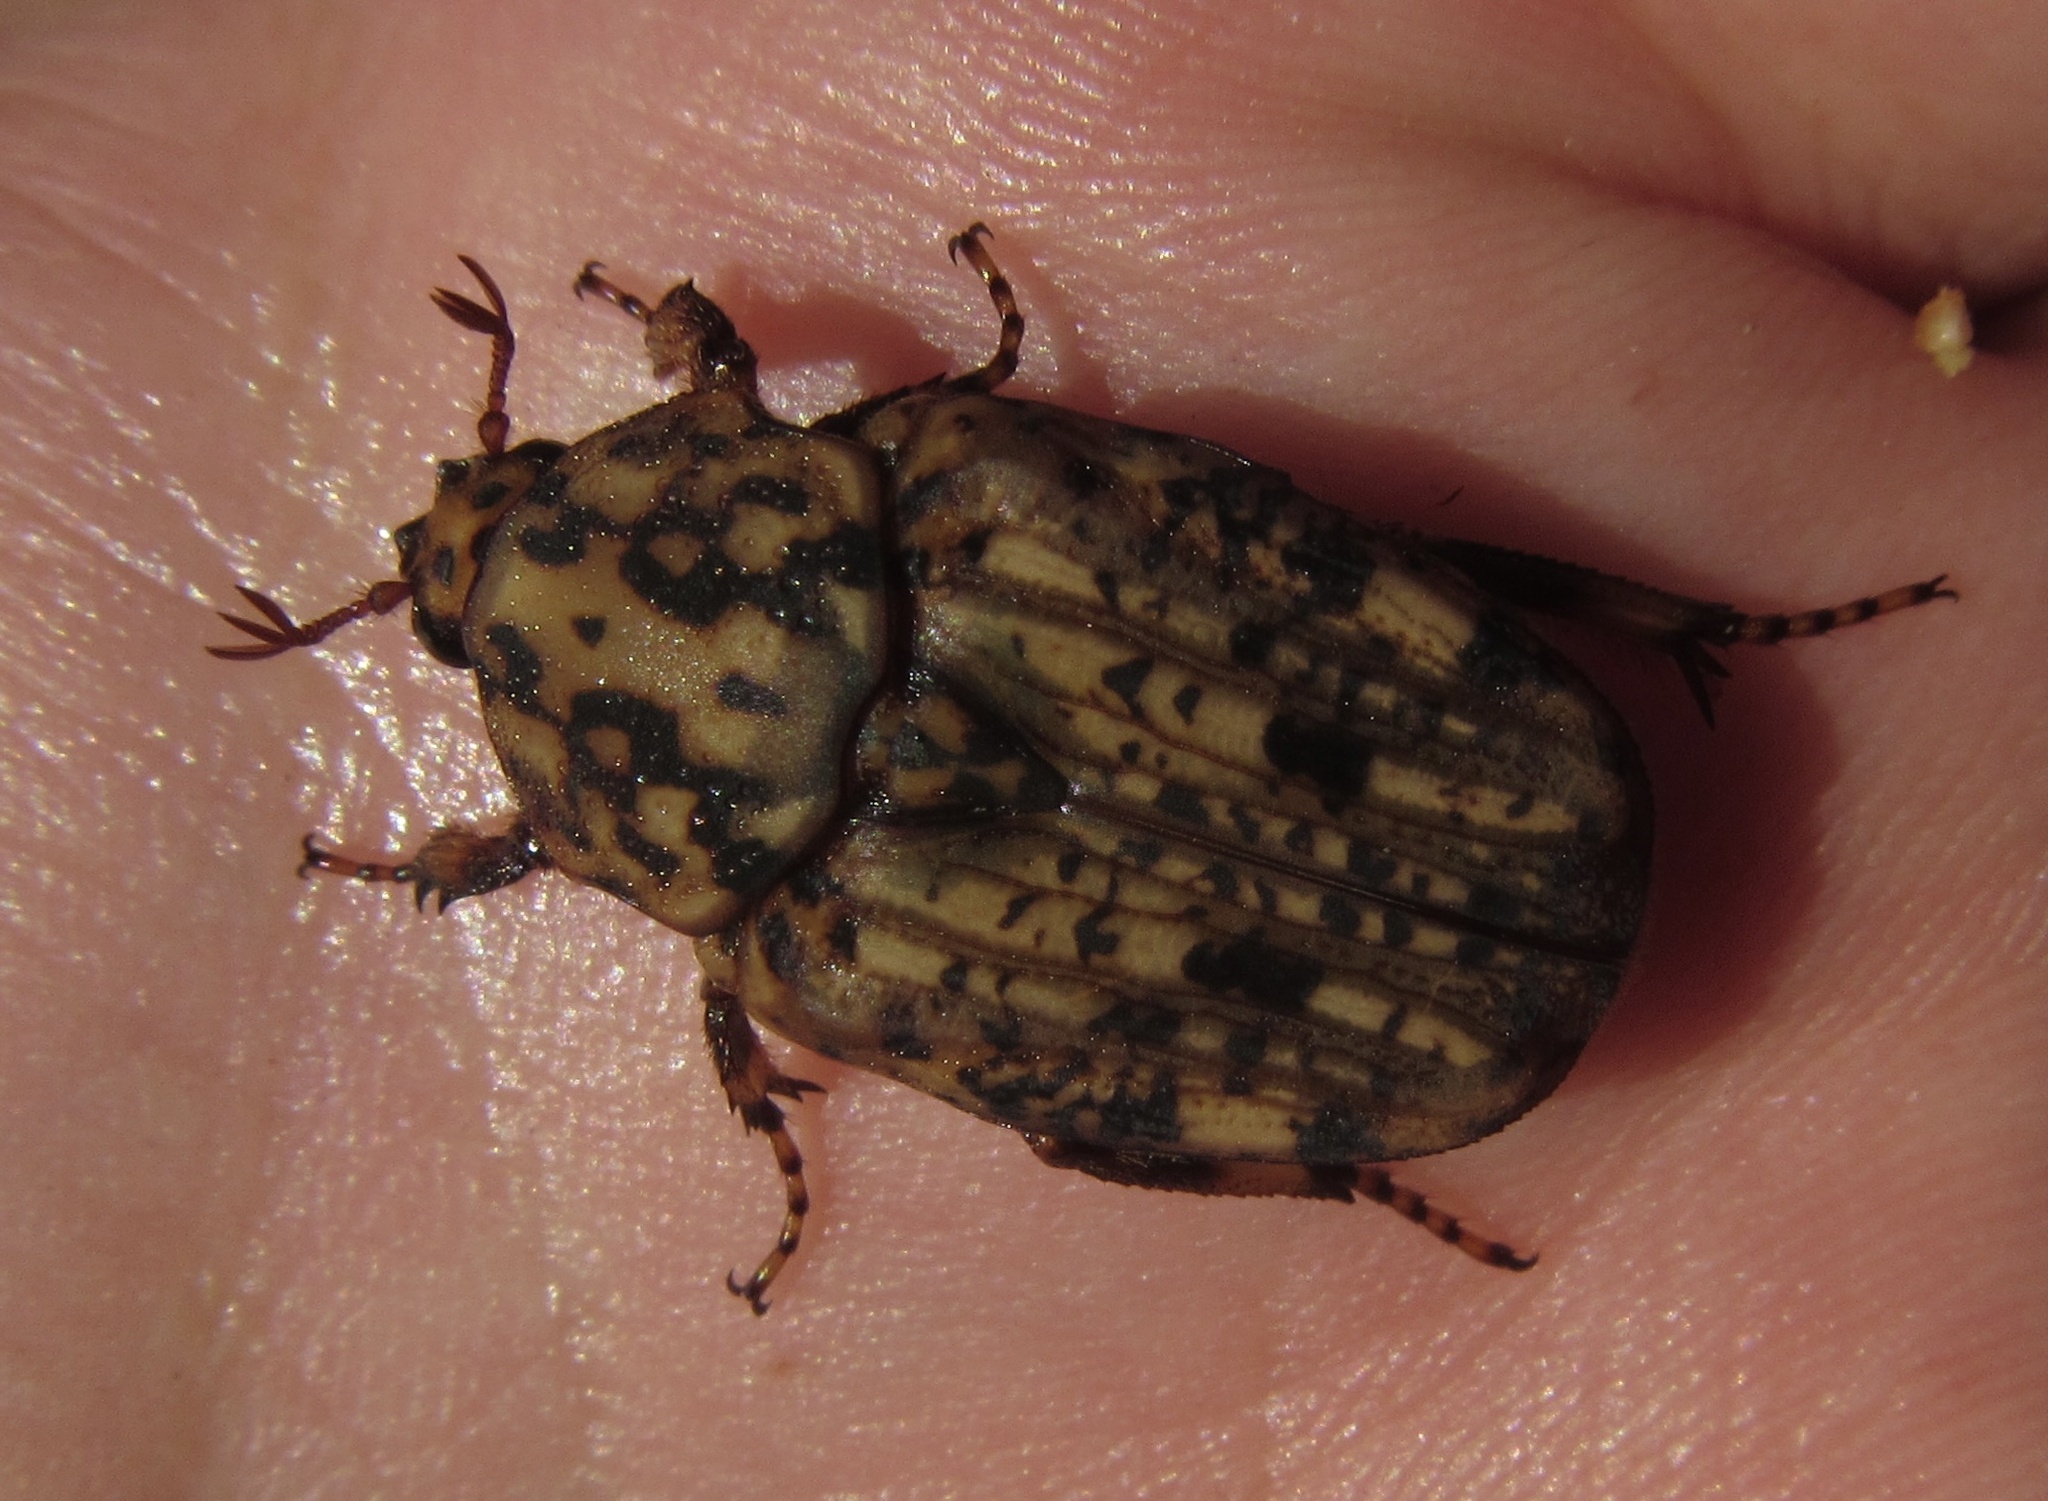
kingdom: Animalia
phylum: Arthropoda
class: Insecta
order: Coleoptera
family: Scarabaeidae
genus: Porphyronota
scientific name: Porphyronota maculatissima
